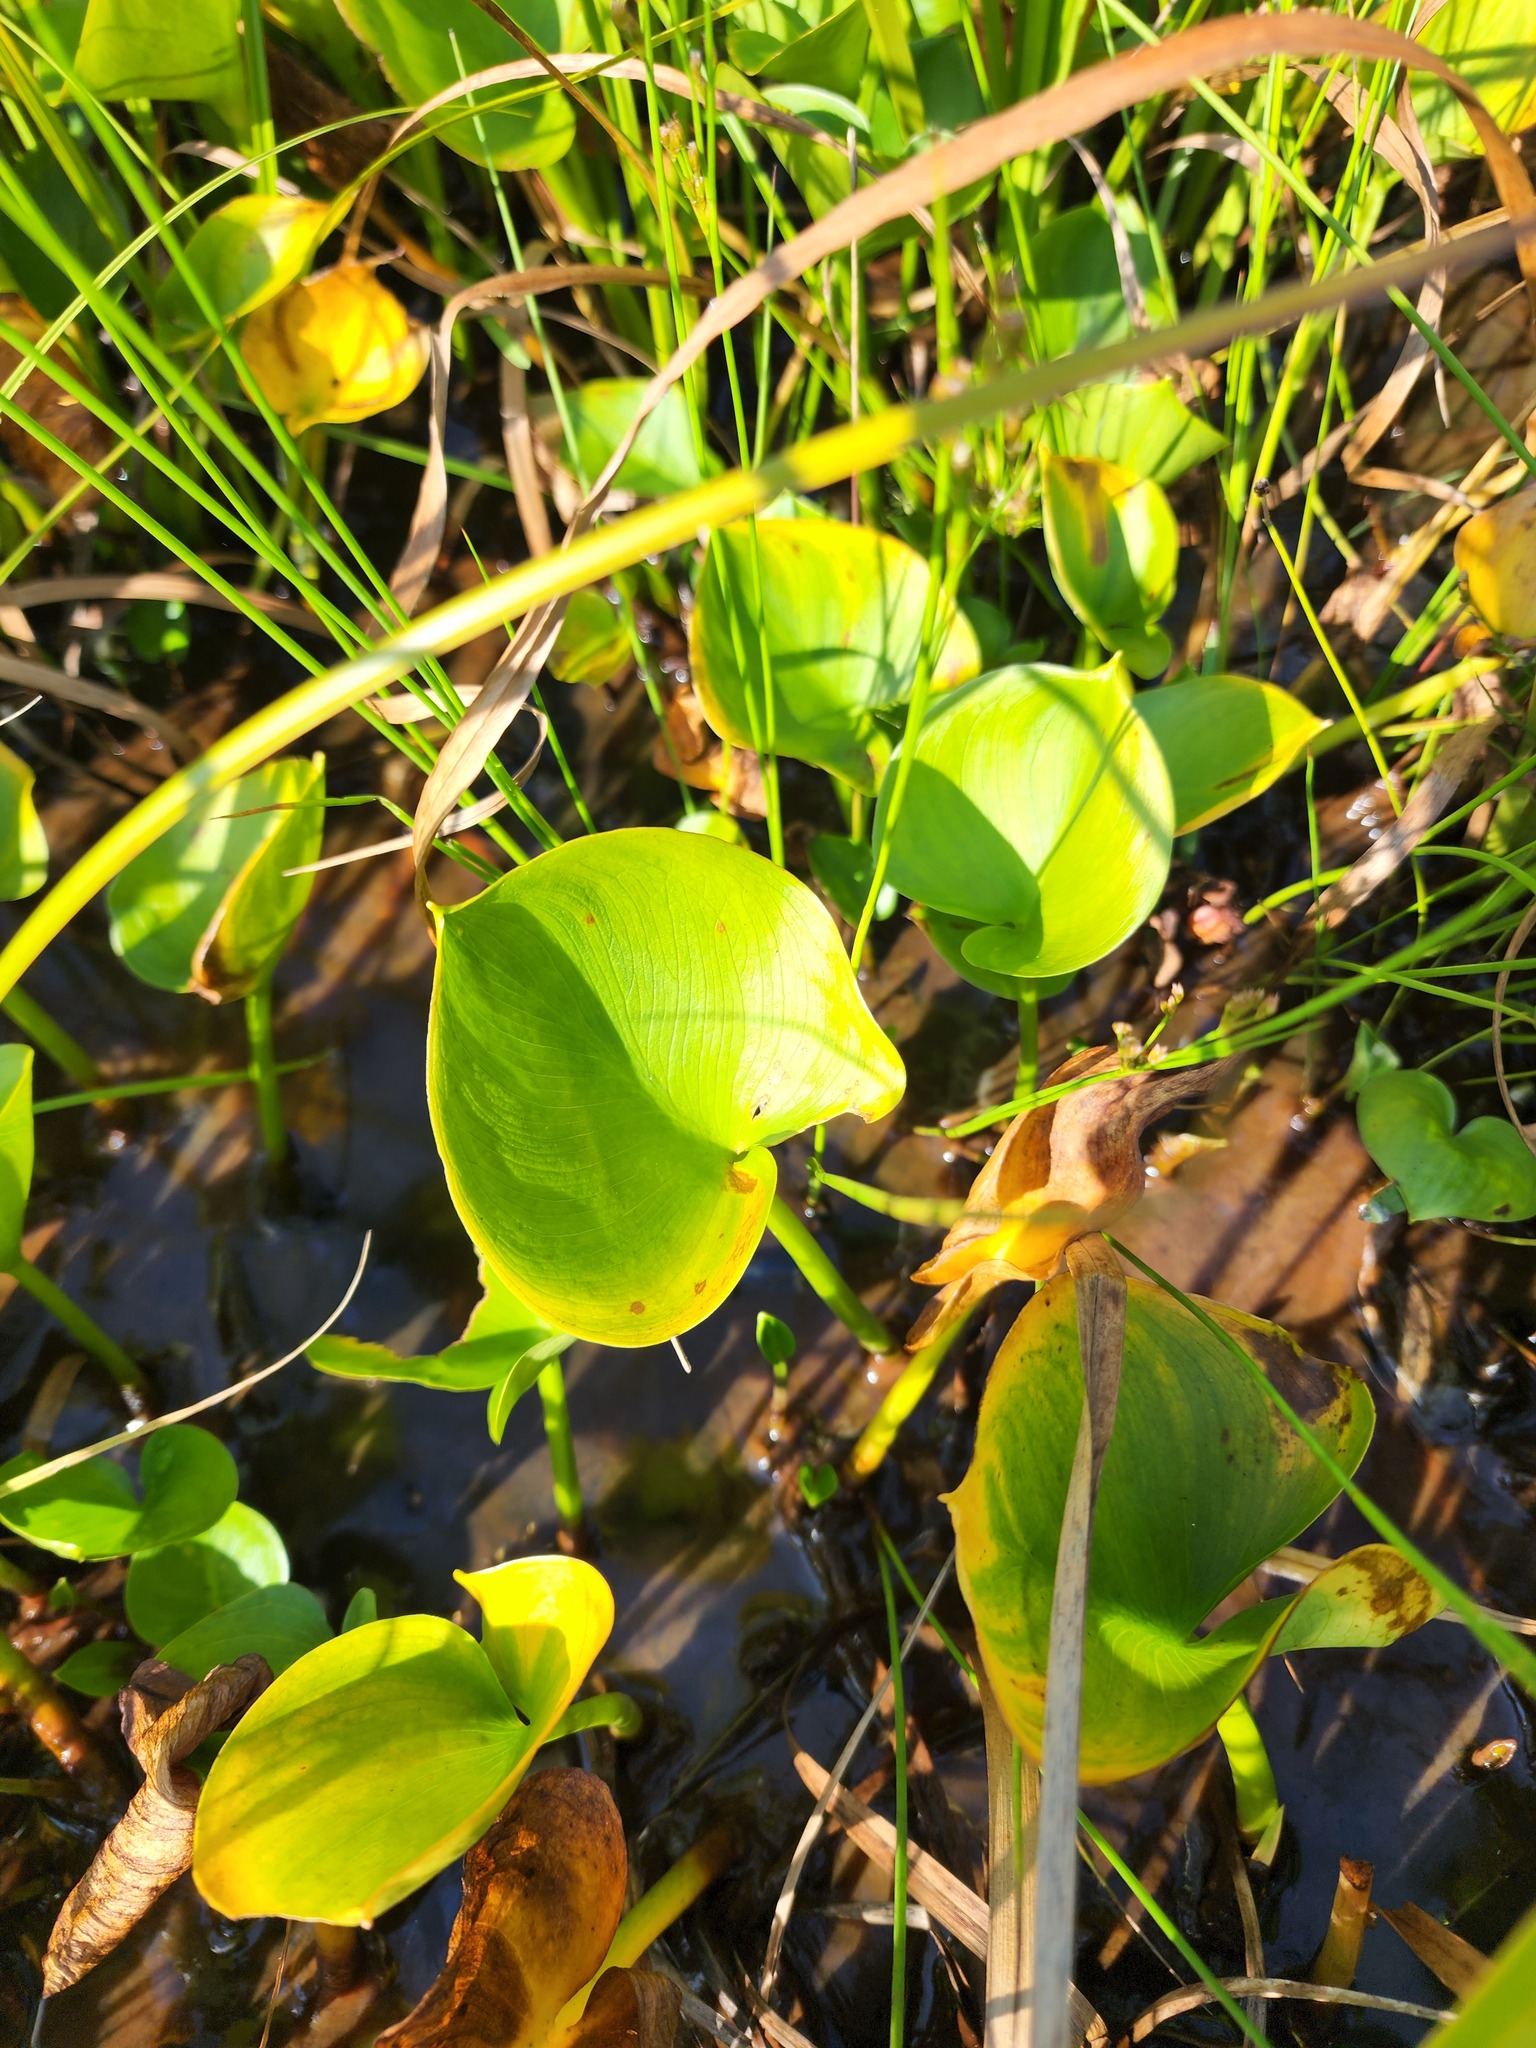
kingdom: Plantae
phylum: Tracheophyta
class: Liliopsida
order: Alismatales
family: Araceae
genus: Calla
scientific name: Calla palustris
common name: Bog arum
